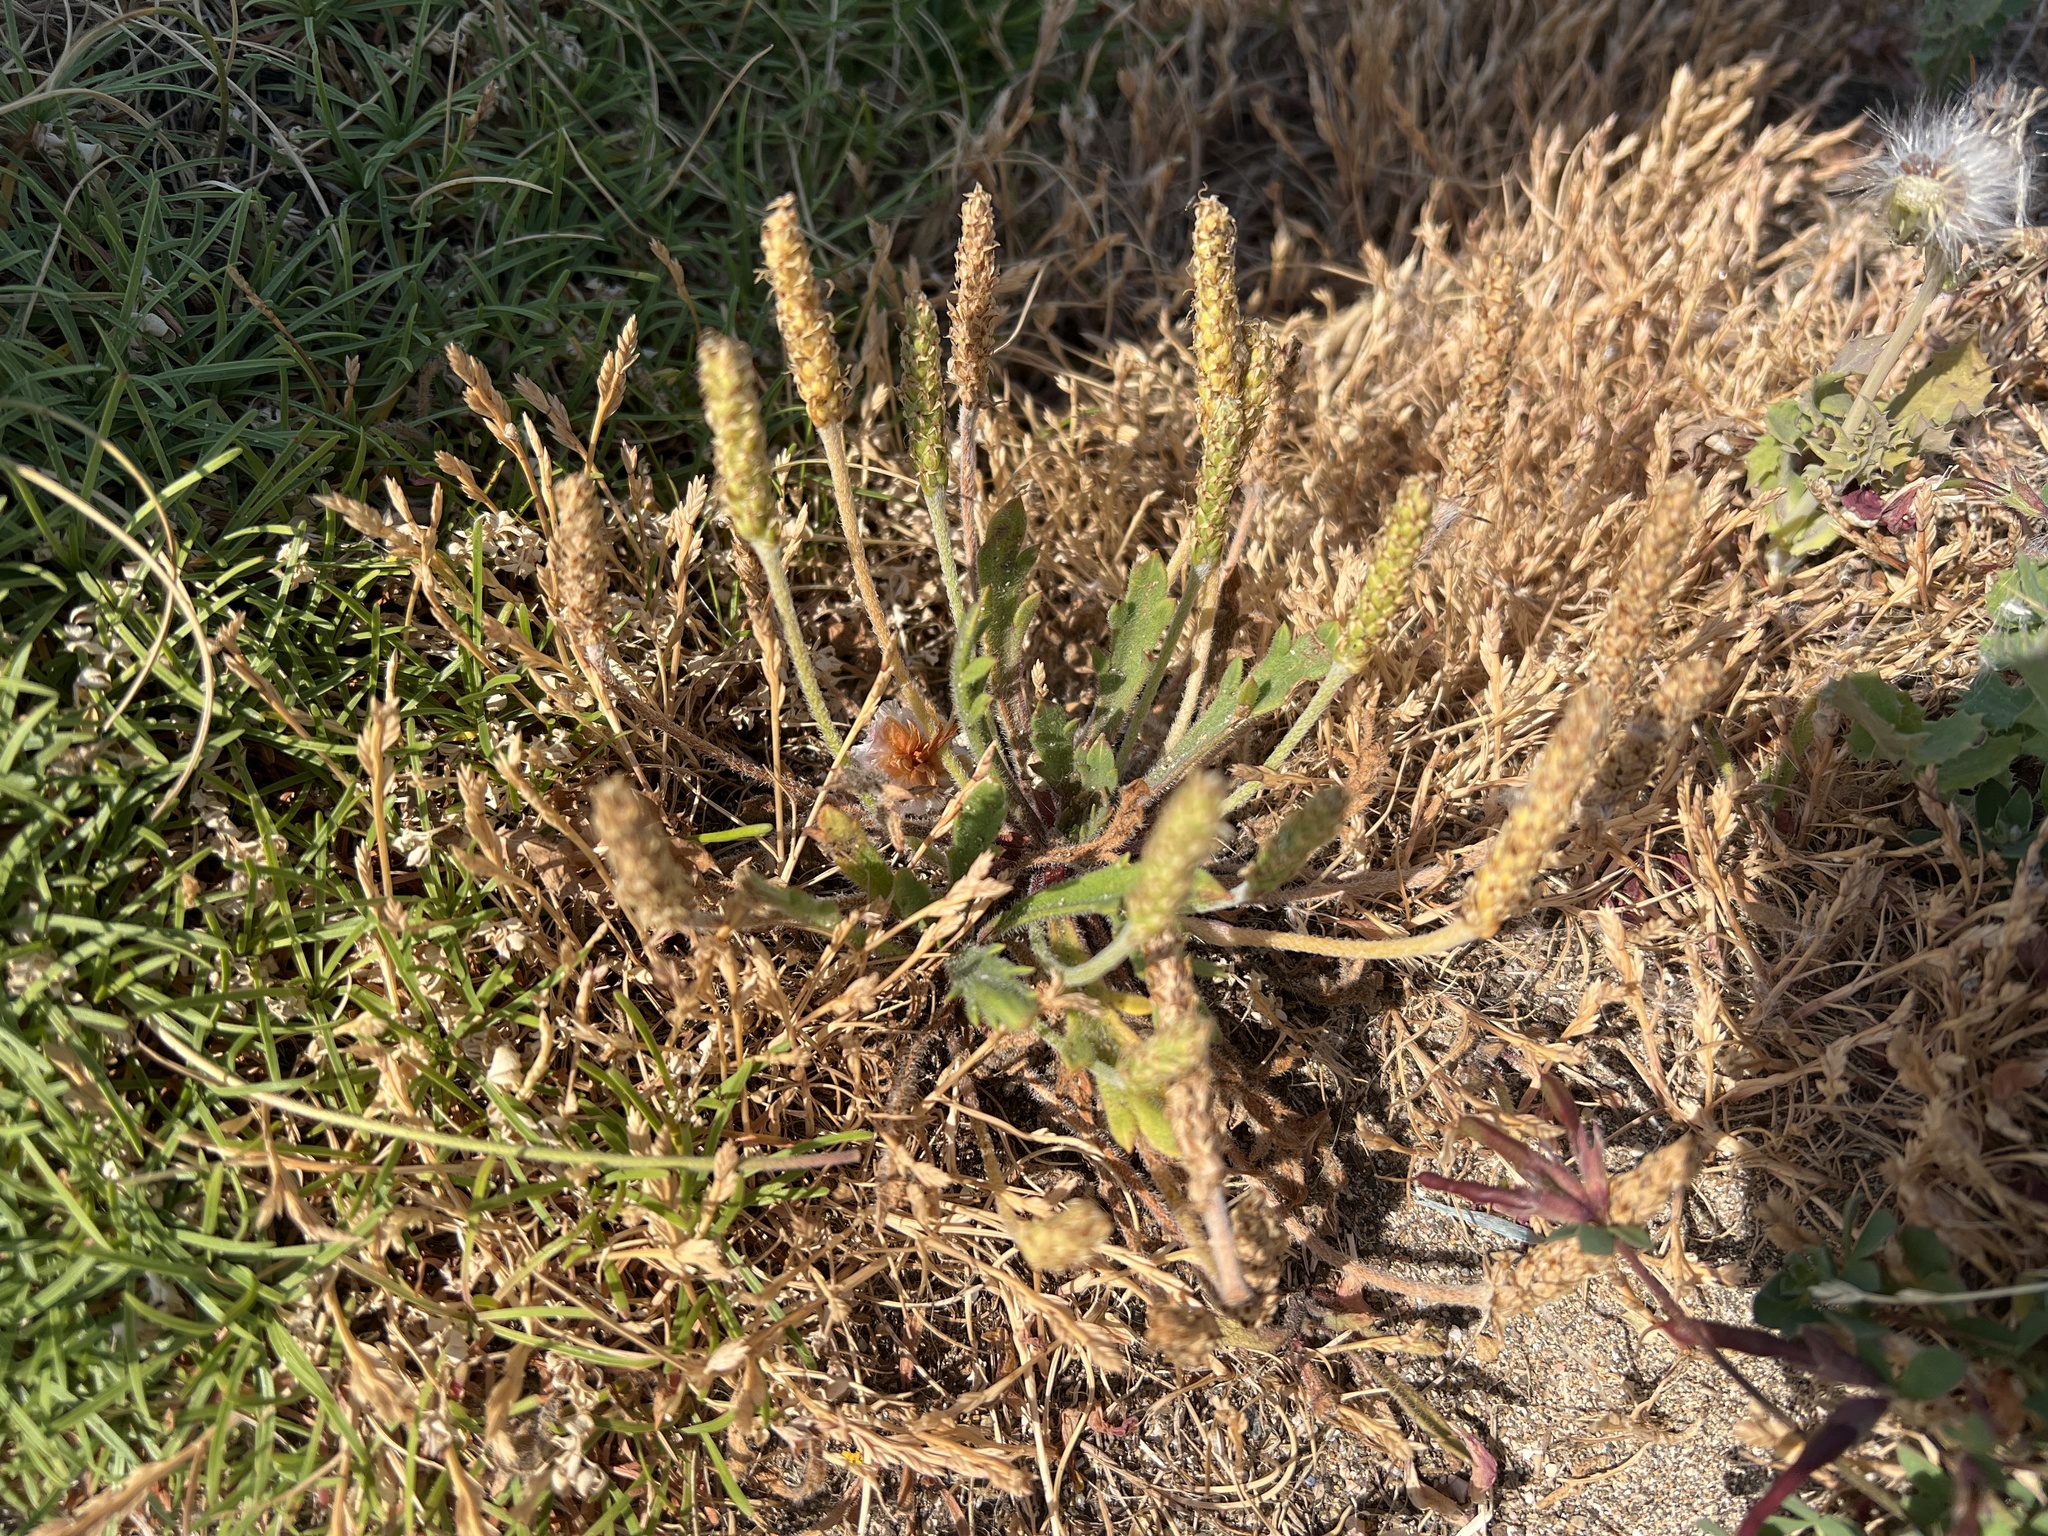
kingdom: Plantae
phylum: Tracheophyta
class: Magnoliopsida
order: Lamiales
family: Plantaginaceae
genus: Plantago
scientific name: Plantago coronopus
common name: Buck's-horn plantain
